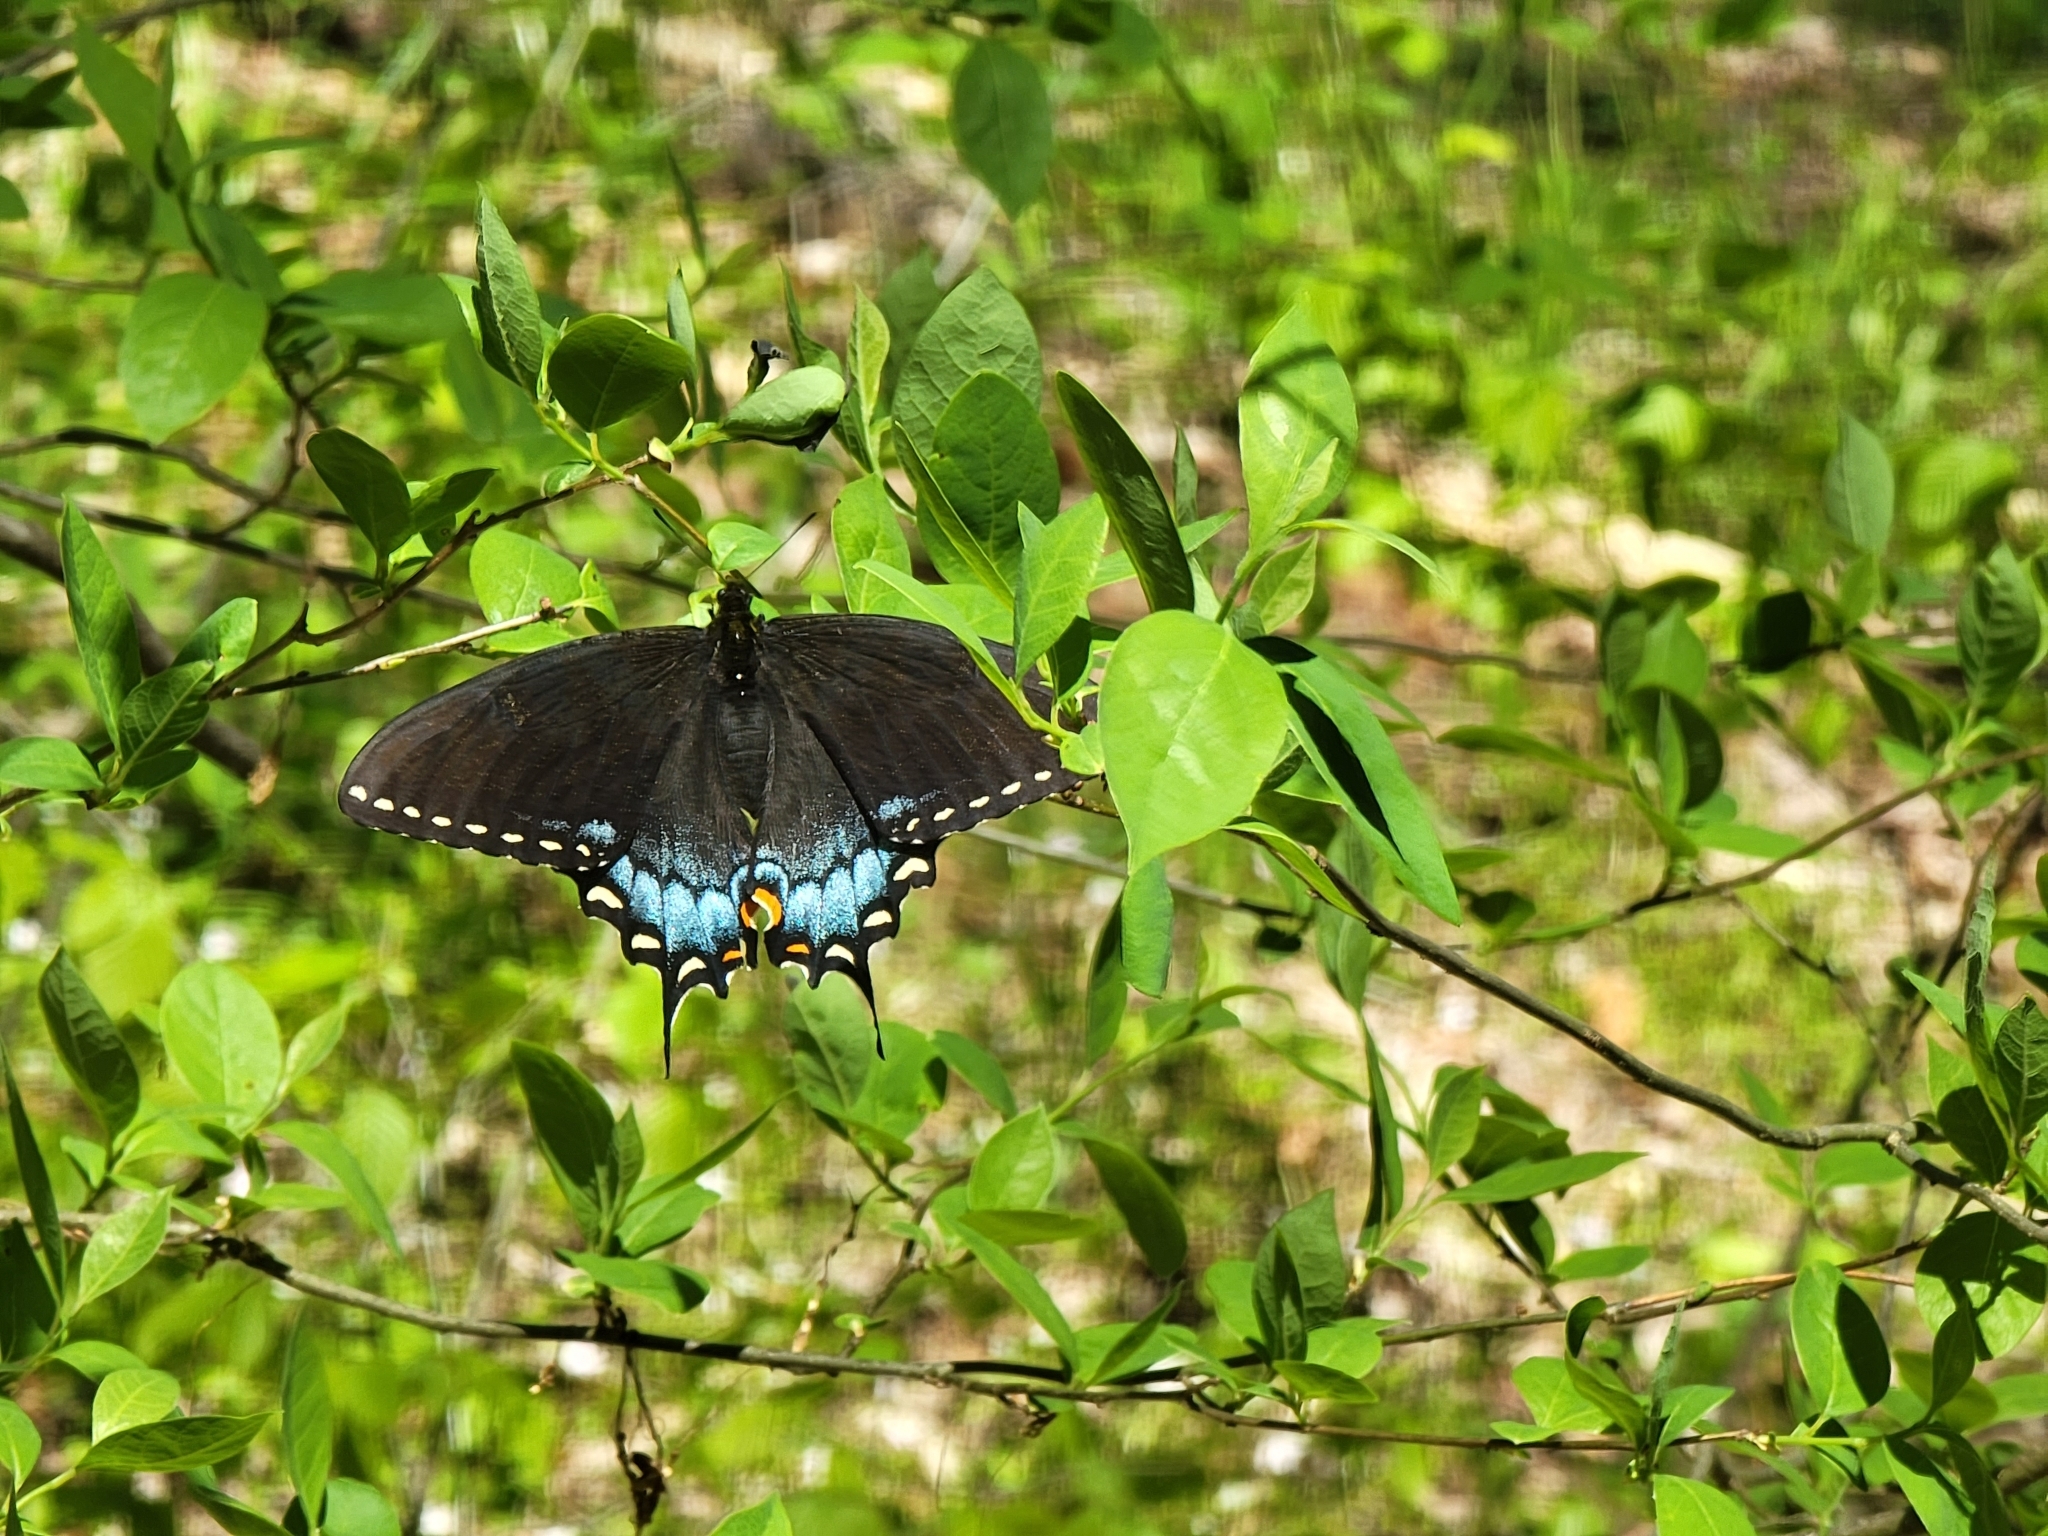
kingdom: Animalia
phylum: Arthropoda
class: Insecta
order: Lepidoptera
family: Papilionidae
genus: Papilio
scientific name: Papilio glaucus
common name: Tiger swallowtail
